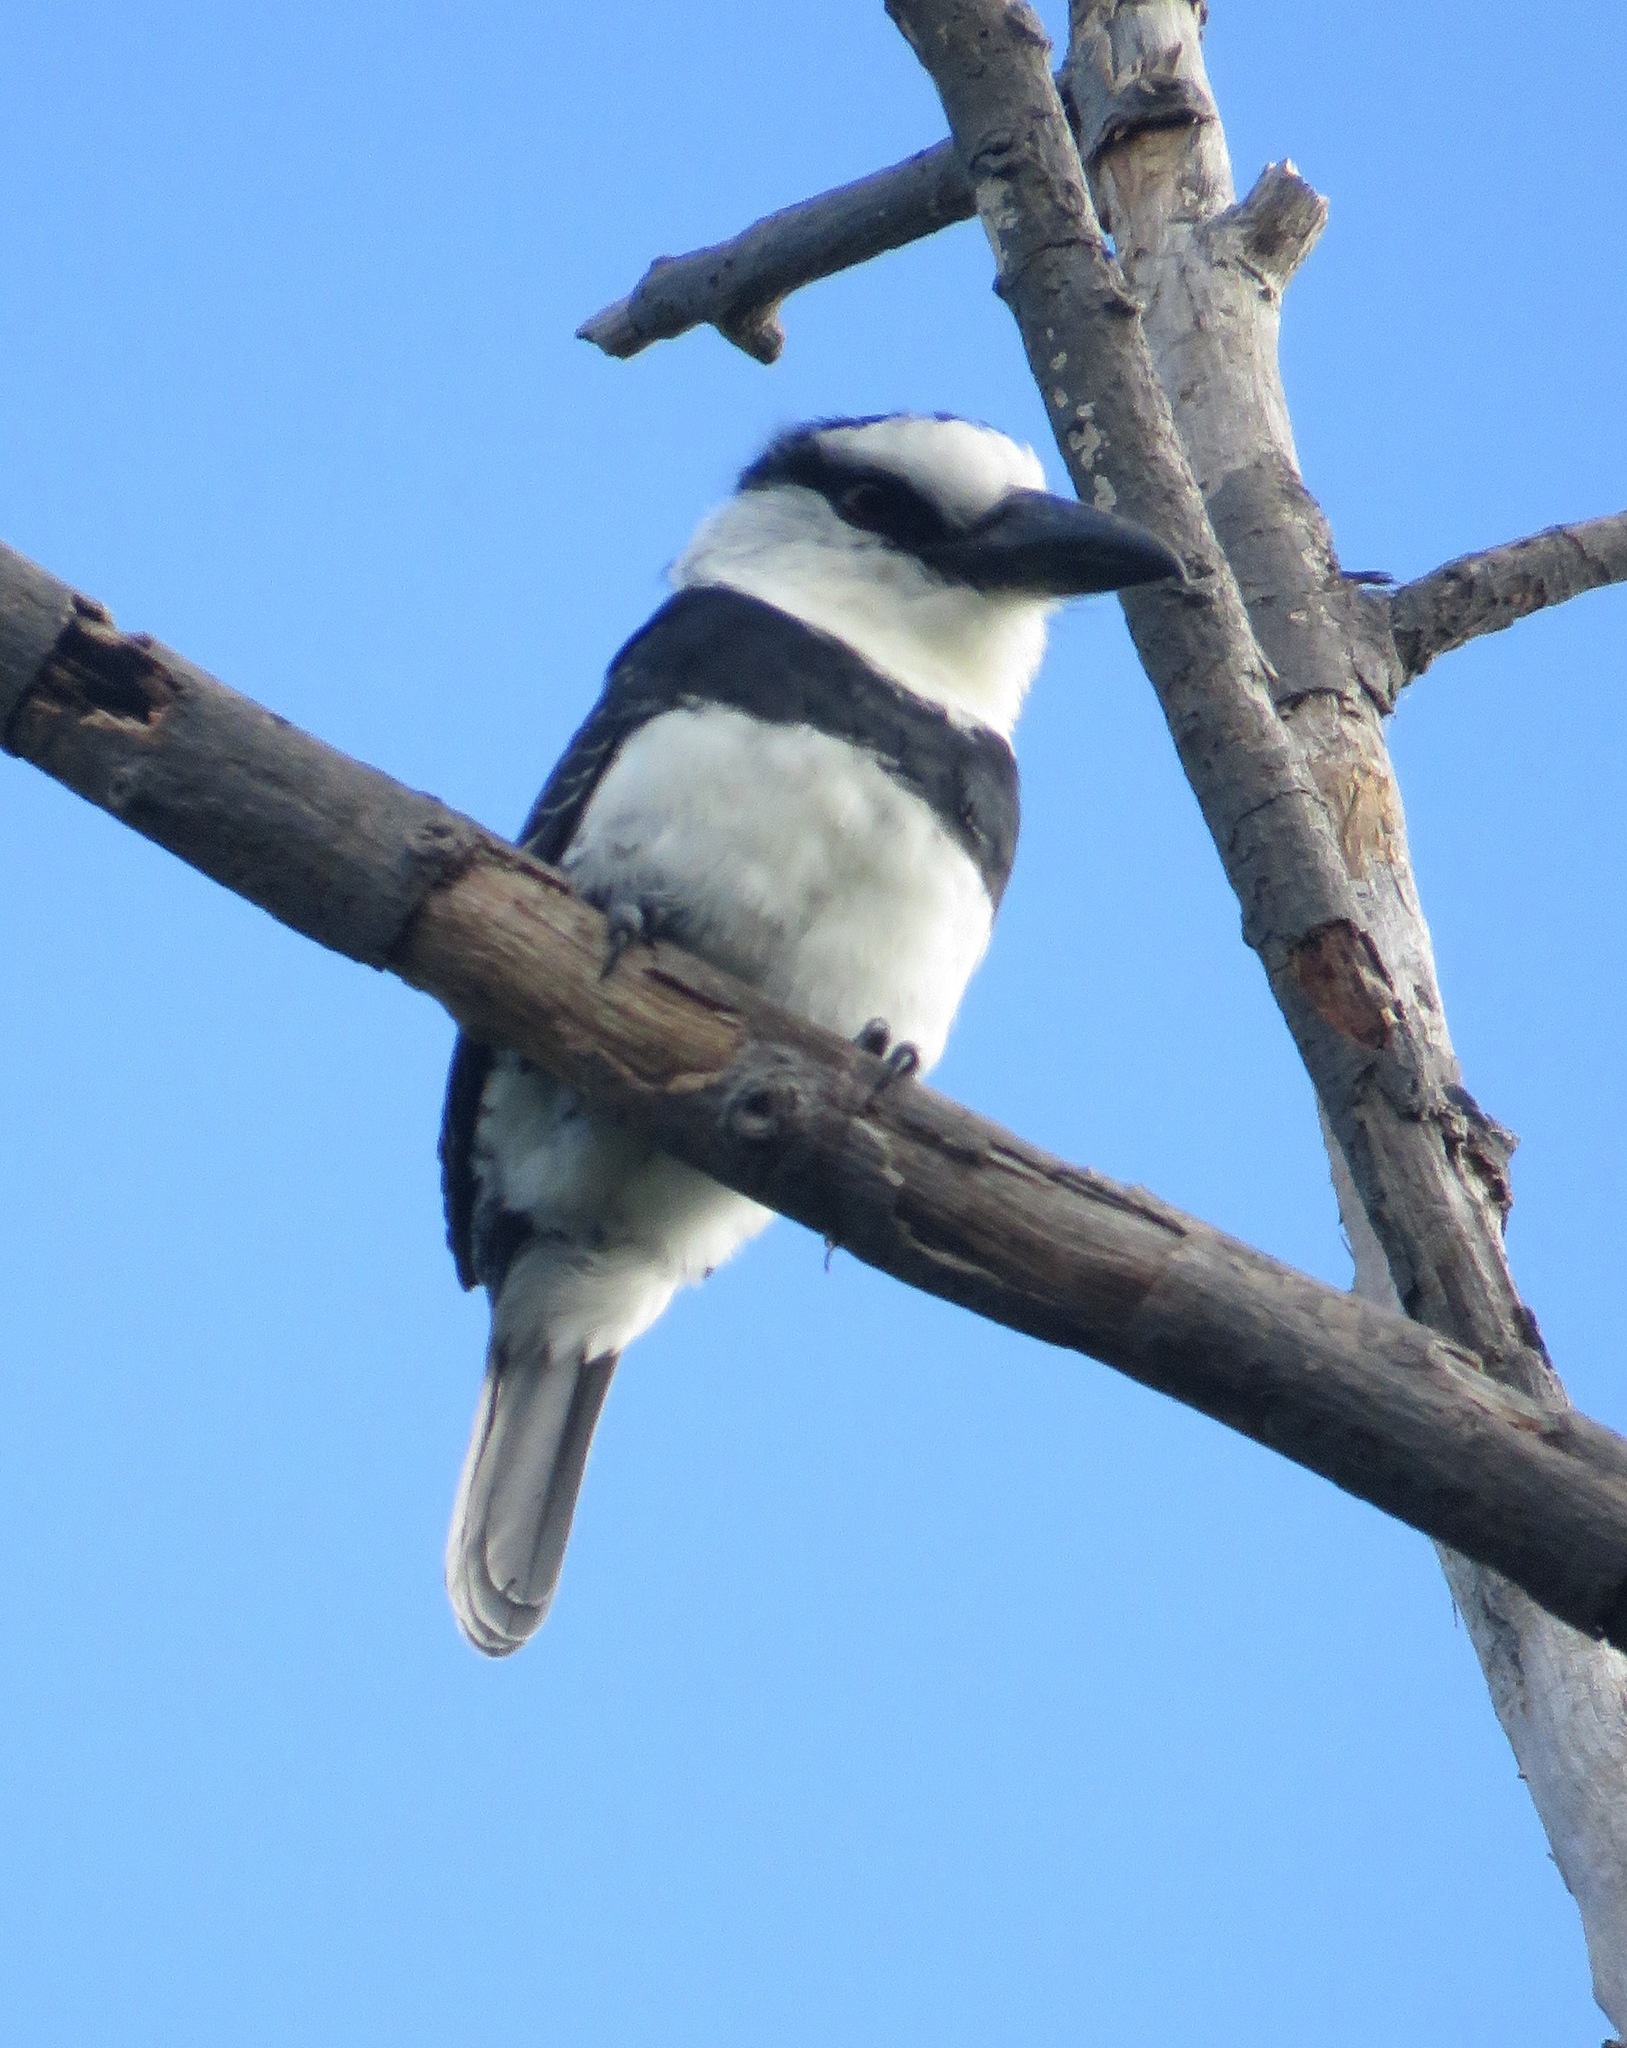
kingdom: Animalia
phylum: Chordata
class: Aves
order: Piciformes
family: Bucconidae
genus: Notharchus
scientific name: Notharchus hyperrhynchus
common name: White-necked puffbird
